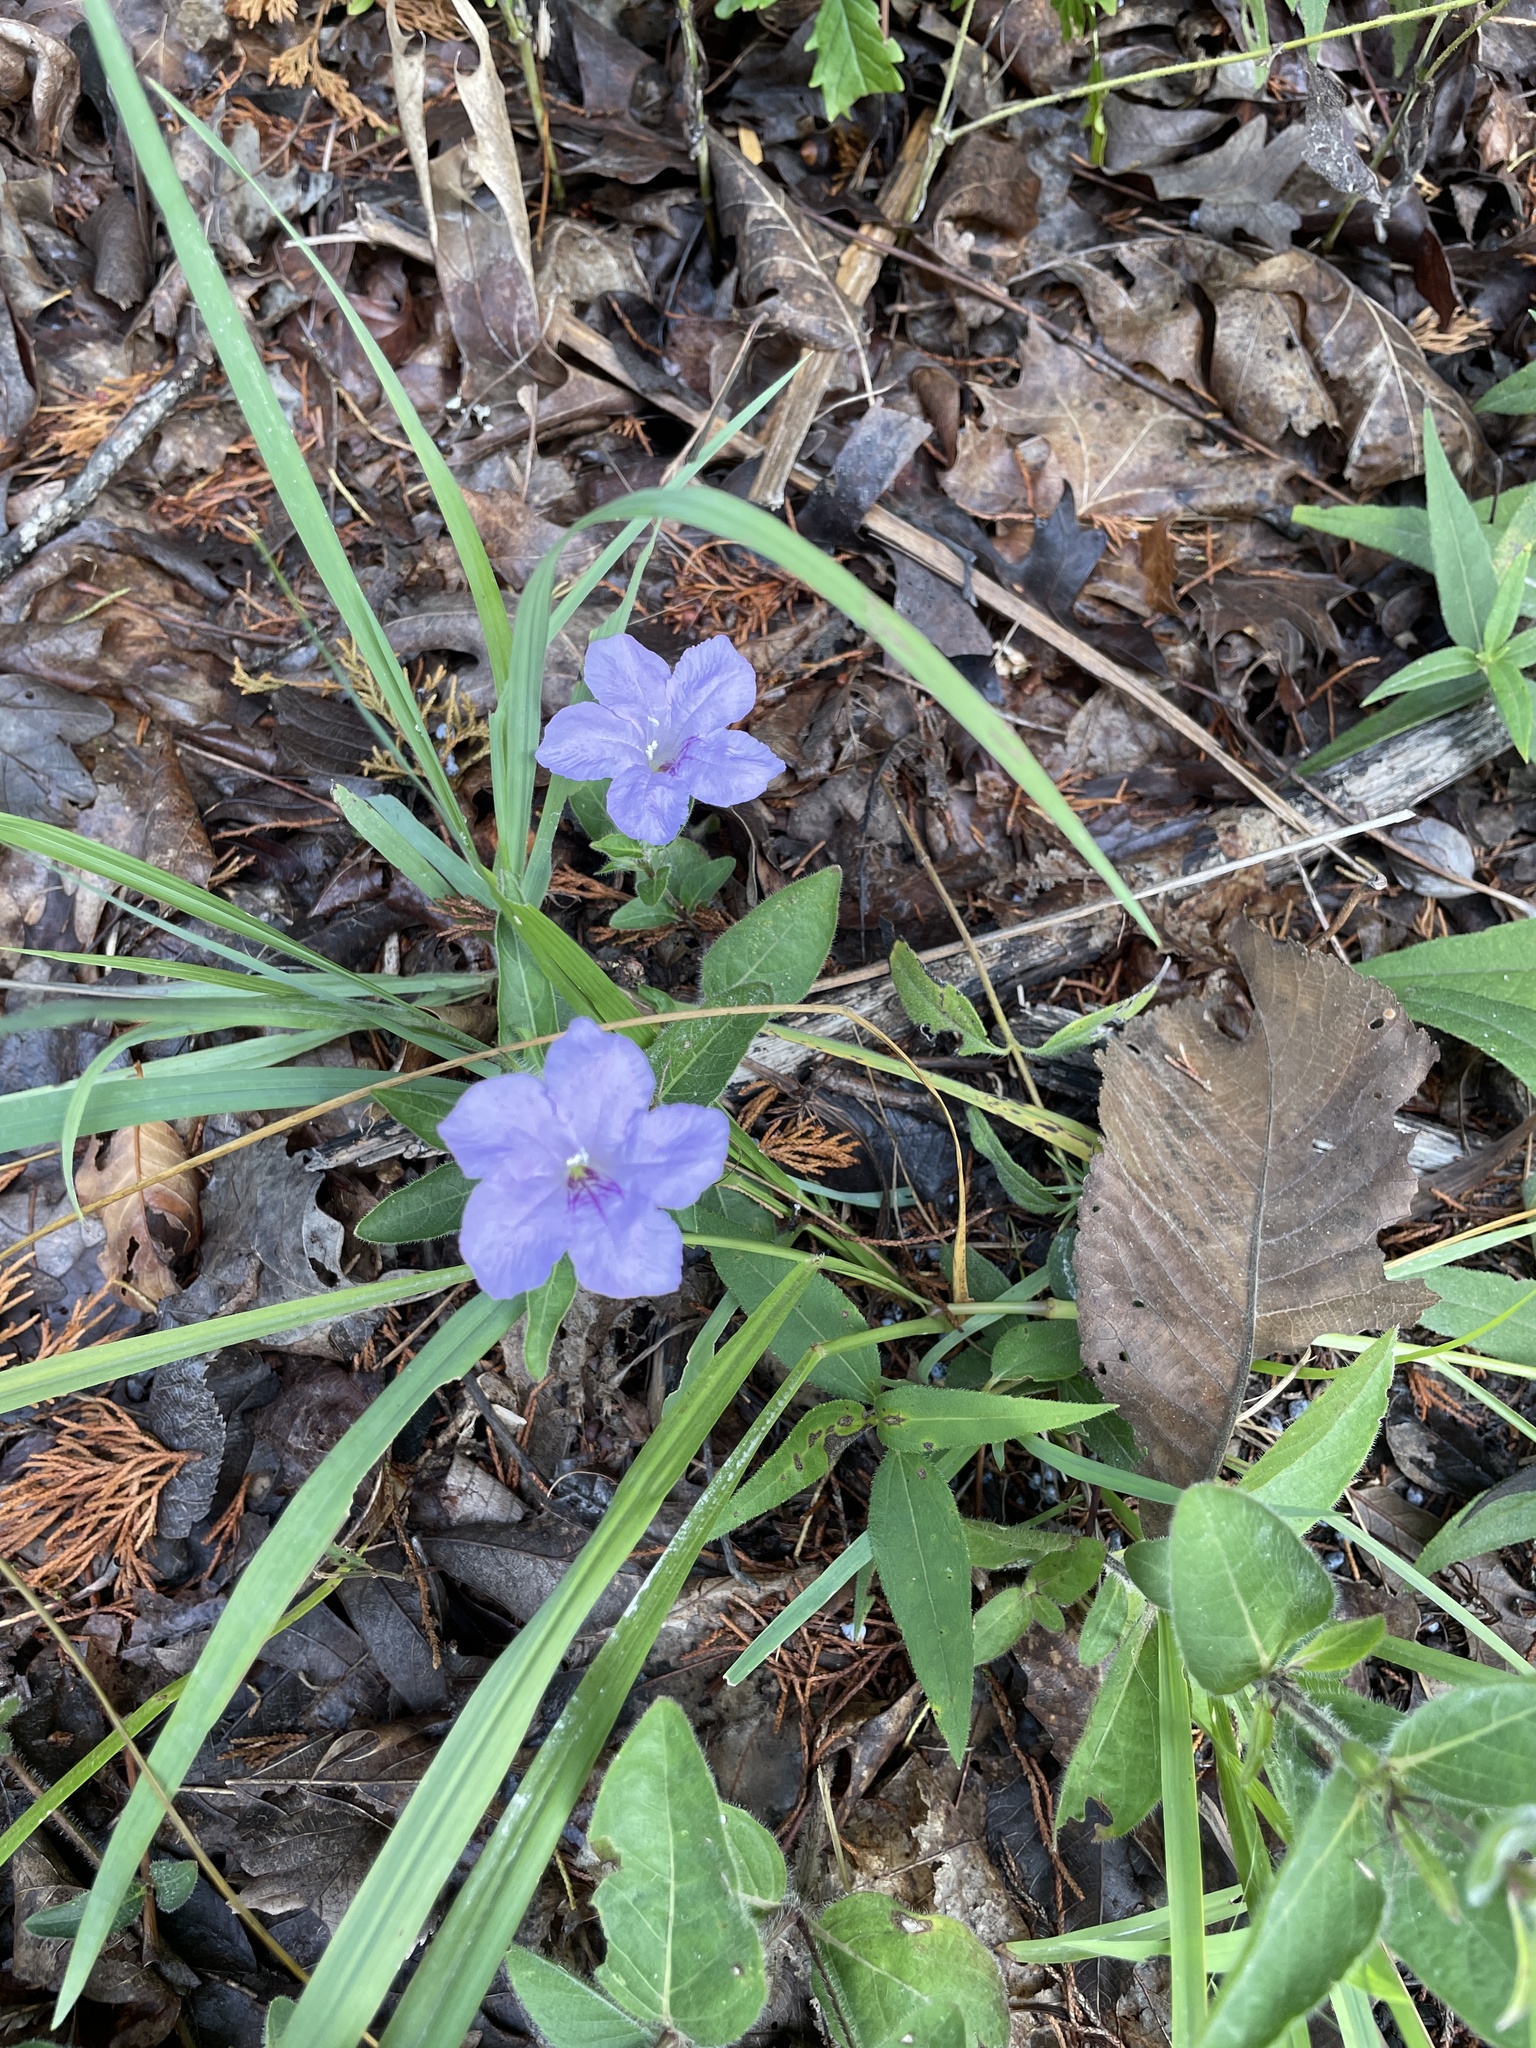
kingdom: Plantae
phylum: Tracheophyta
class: Magnoliopsida
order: Lamiales
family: Acanthaceae
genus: Ruellia
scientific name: Ruellia humilis
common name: Fringe-leaf ruellia
